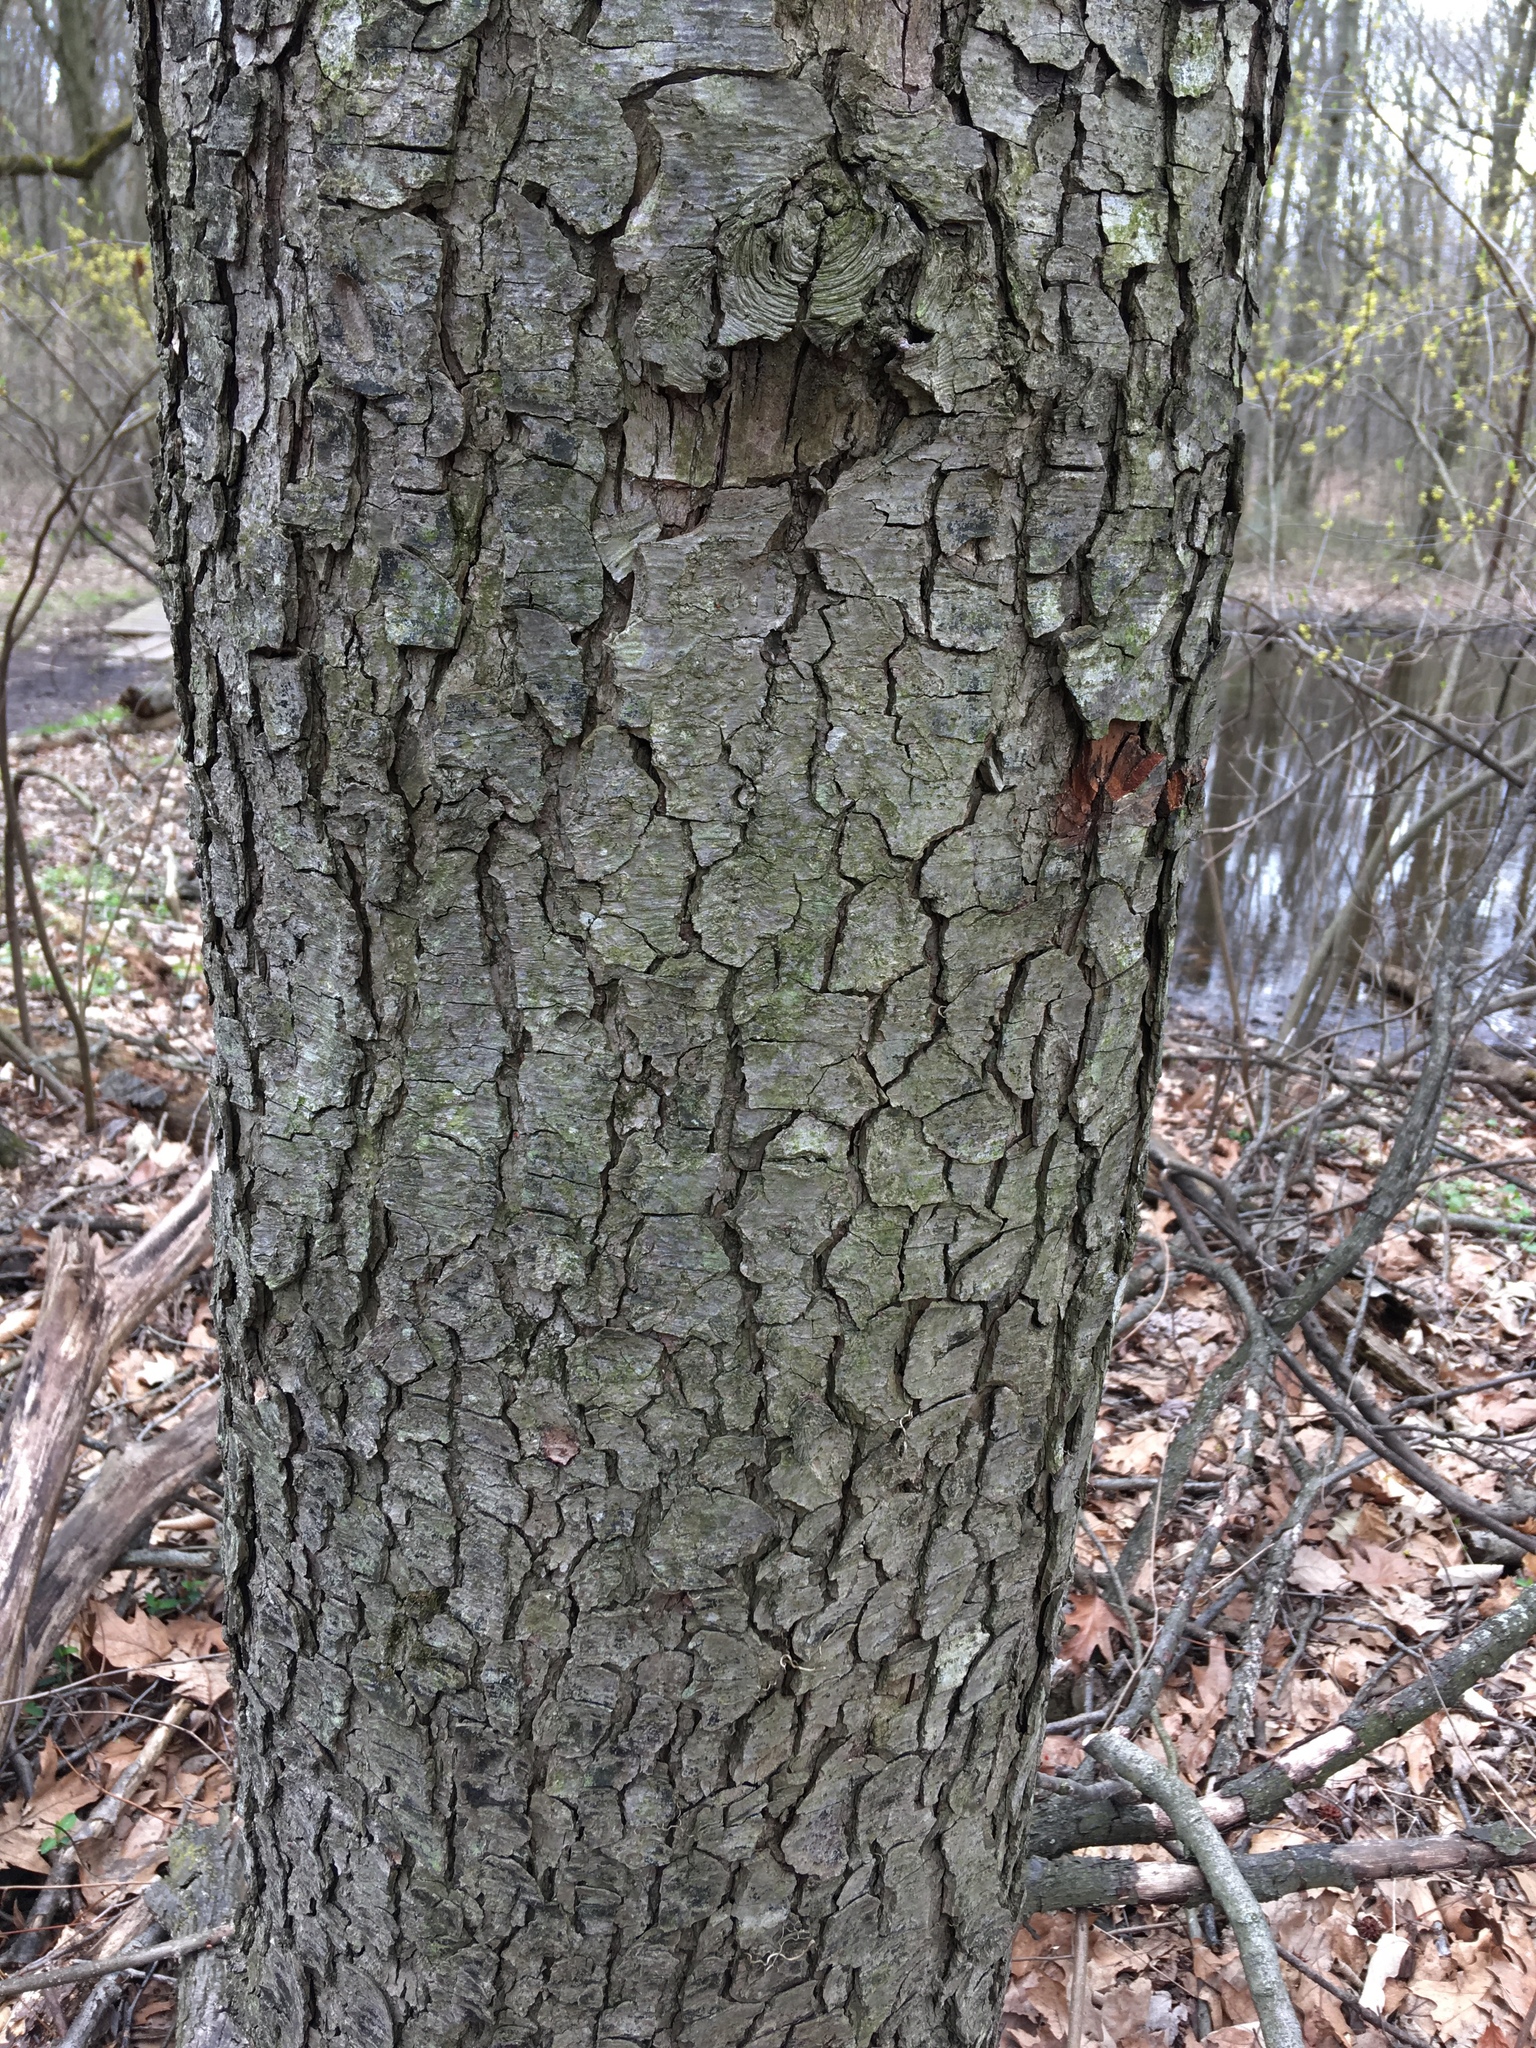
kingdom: Plantae
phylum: Tracheophyta
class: Magnoliopsida
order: Rosales
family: Rosaceae
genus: Prunus
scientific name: Prunus serotina
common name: Black cherry
